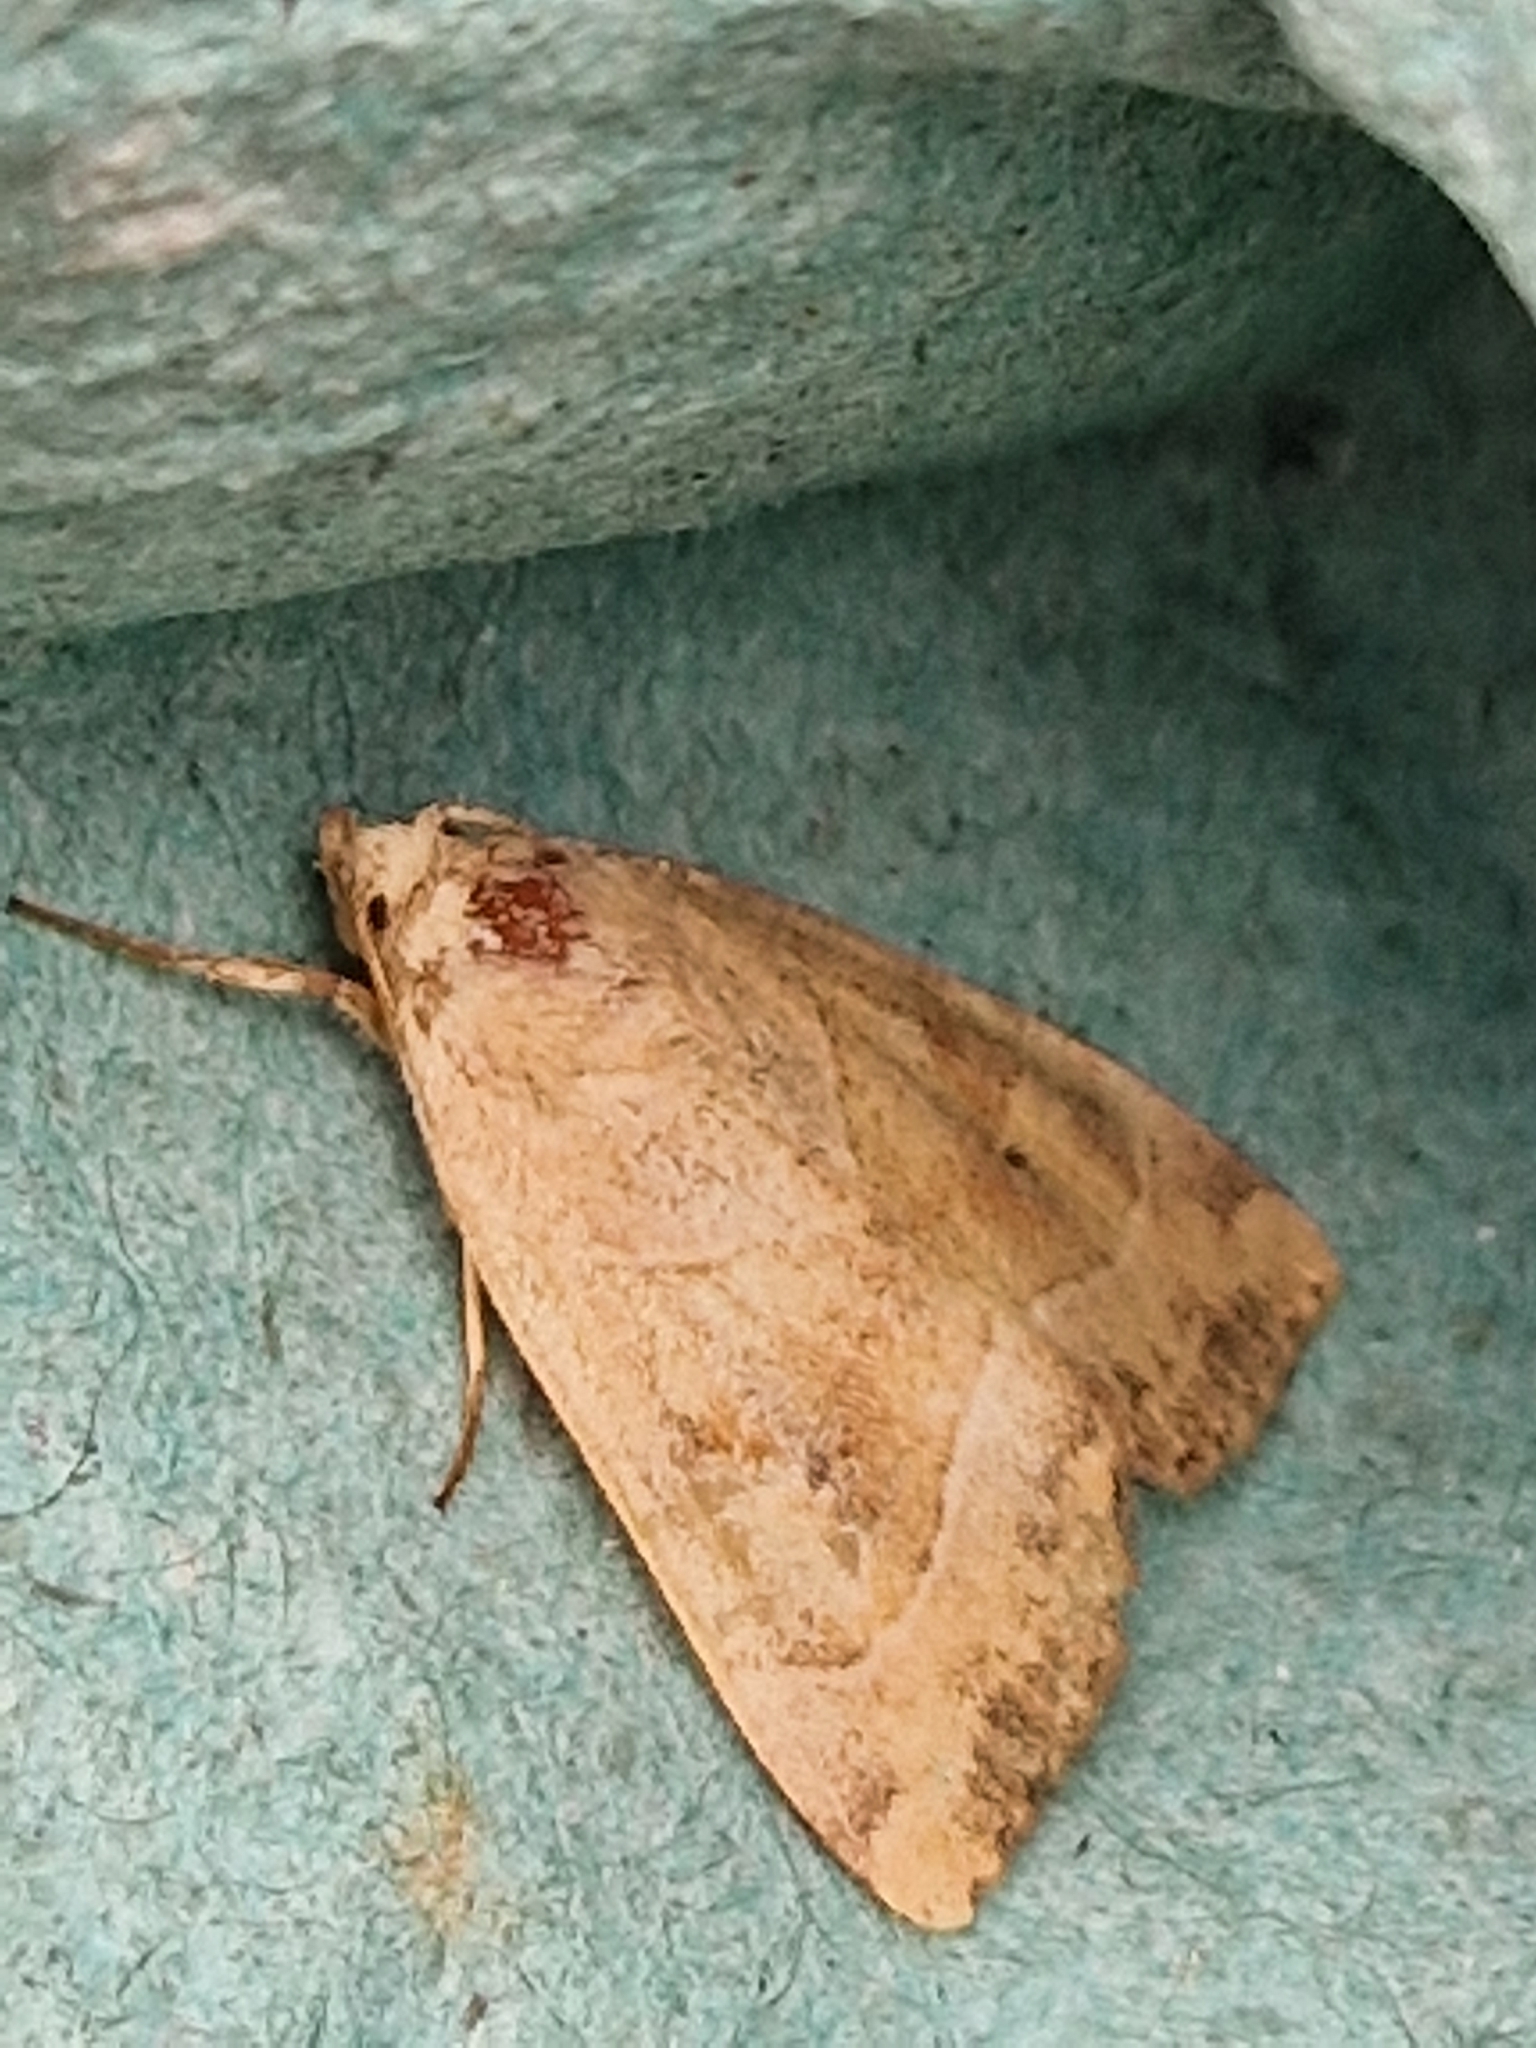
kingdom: Animalia
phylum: Arthropoda
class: Insecta
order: Lepidoptera
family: Noctuidae
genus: Cosmia
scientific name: Cosmia trapezina
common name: Dun-bar
